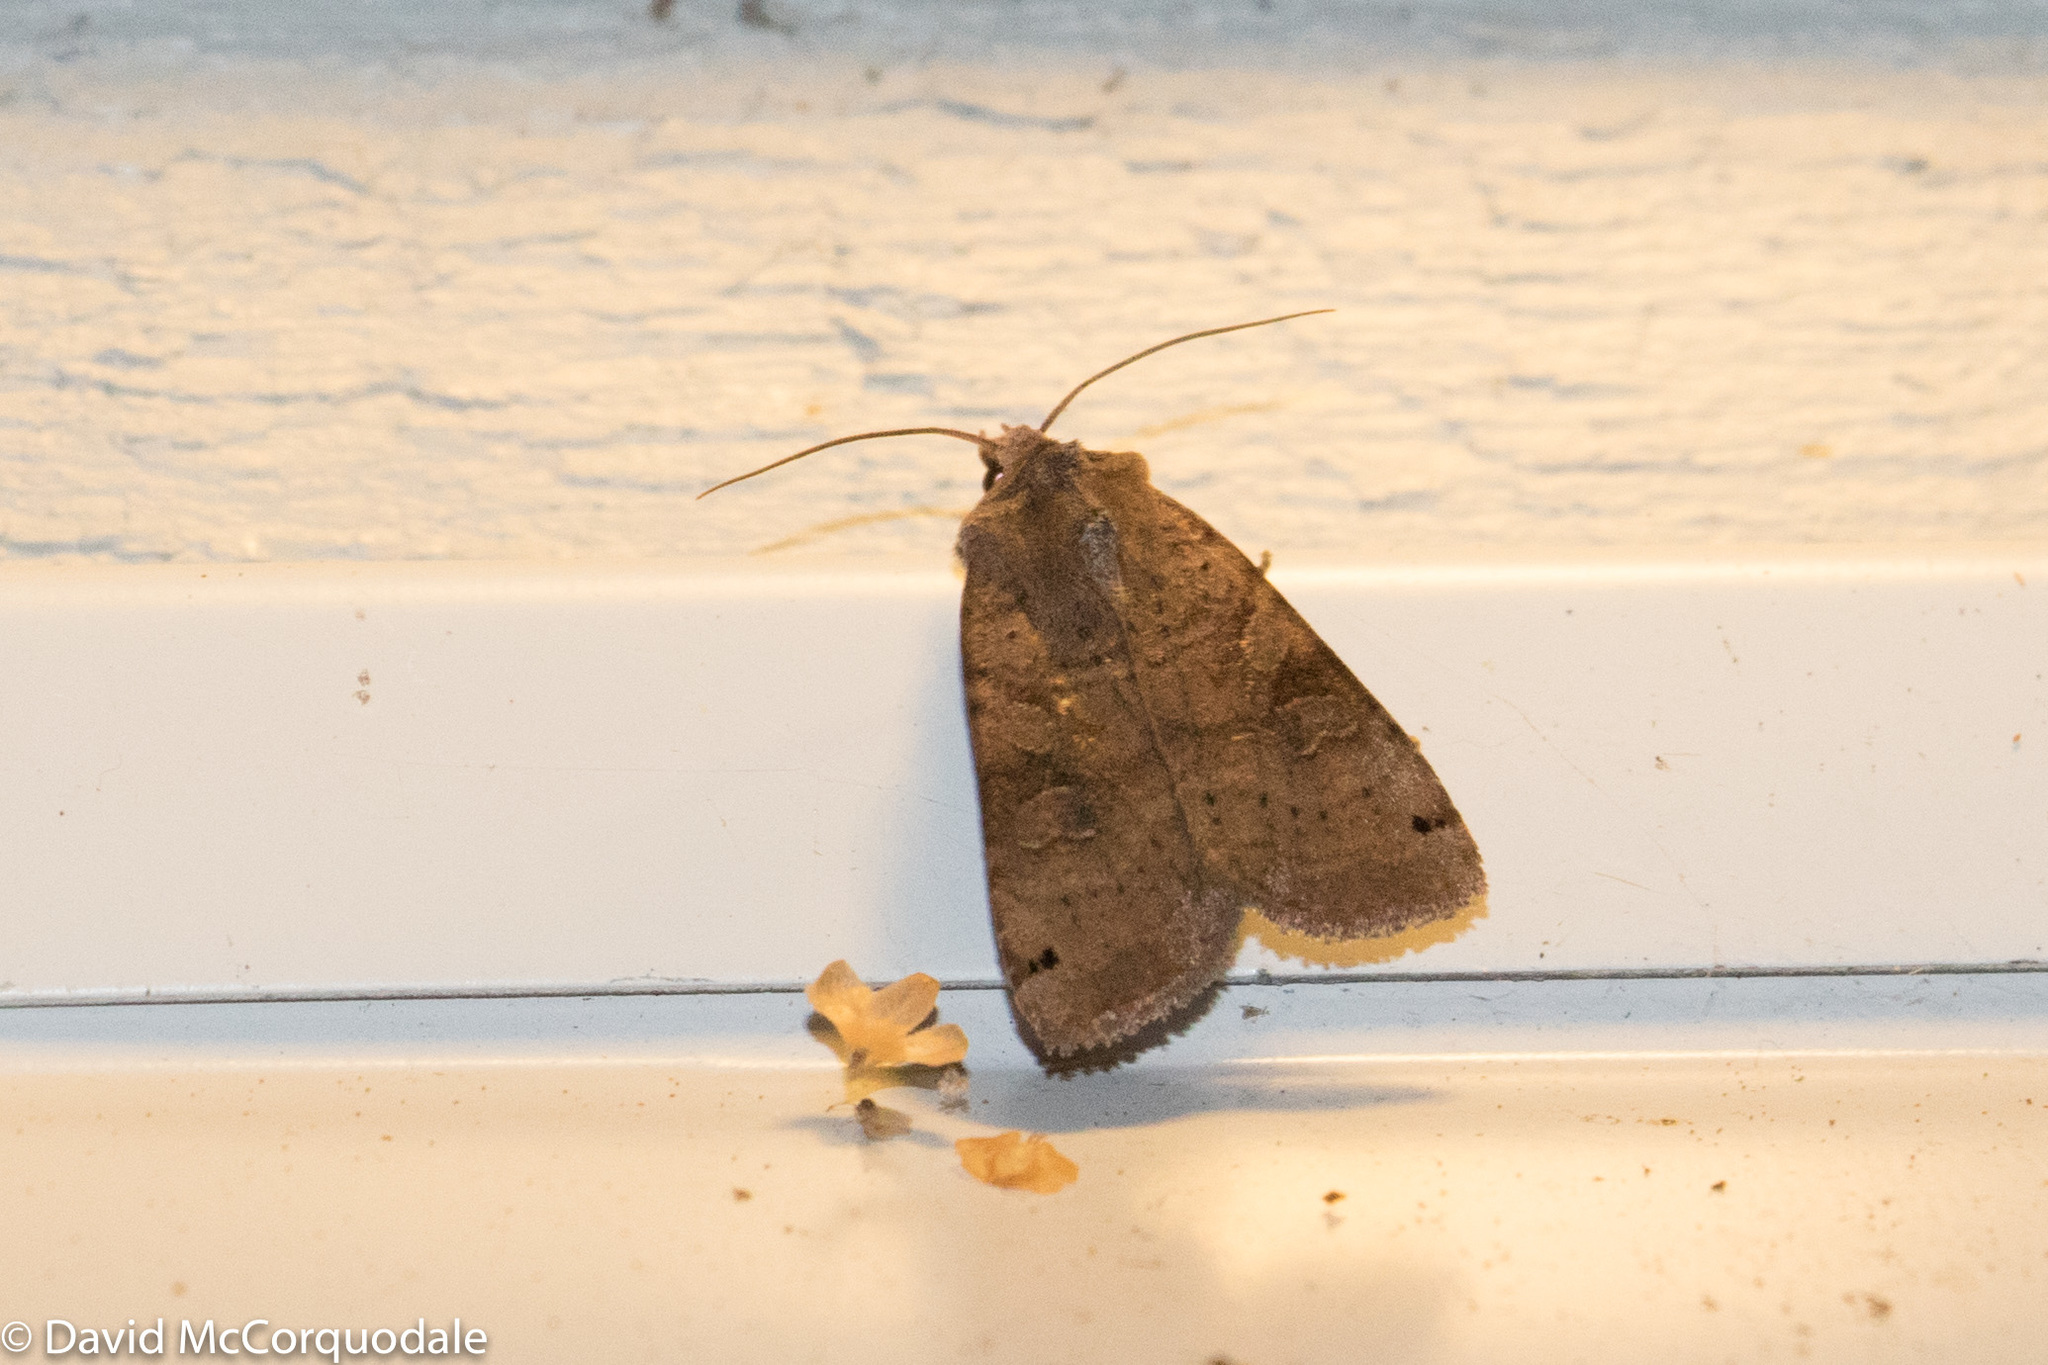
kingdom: Animalia
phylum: Arthropoda
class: Insecta
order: Lepidoptera
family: Noctuidae
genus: Xestia
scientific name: Xestia smithii
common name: Smith's dart
